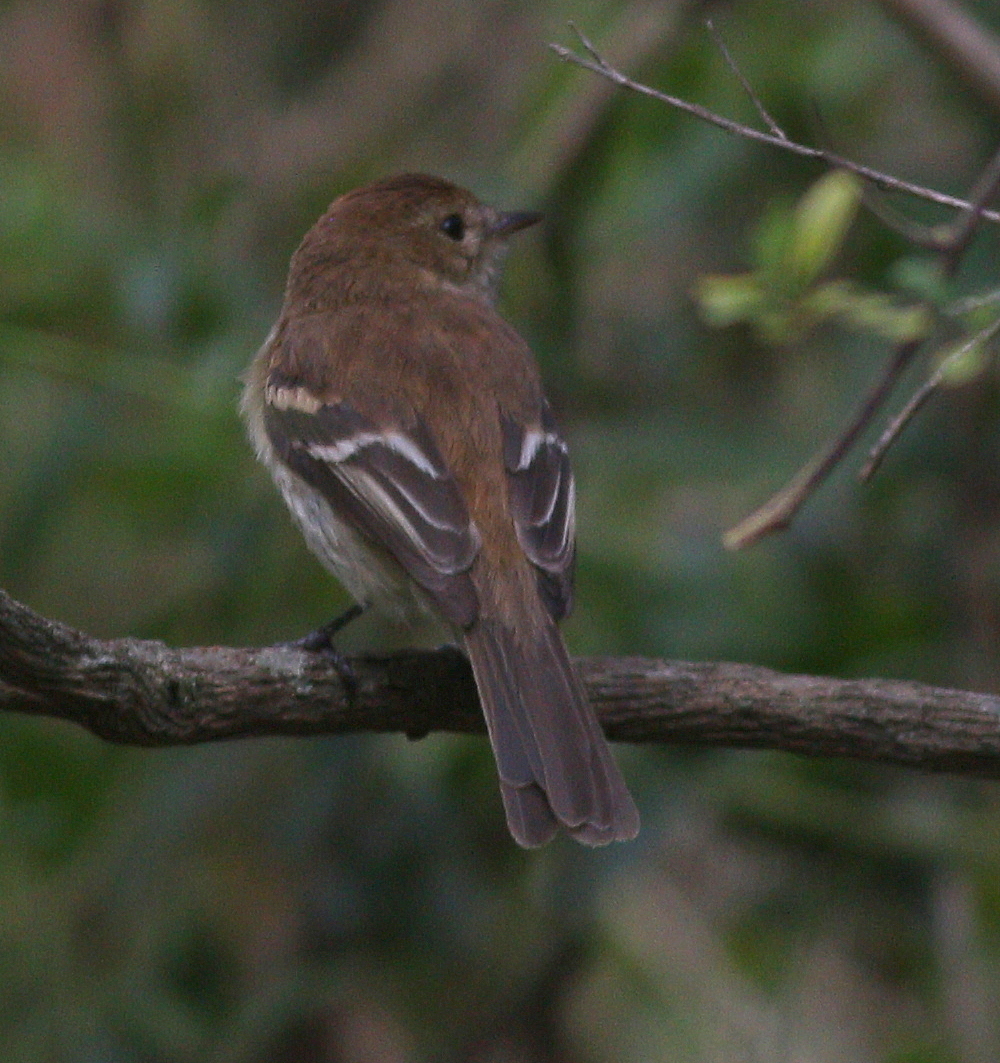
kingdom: Animalia
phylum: Chordata
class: Aves
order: Passeriformes
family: Tyrannidae
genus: Myiophobus
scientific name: Myiophobus fasciatus
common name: Bran-colored flycatcher
